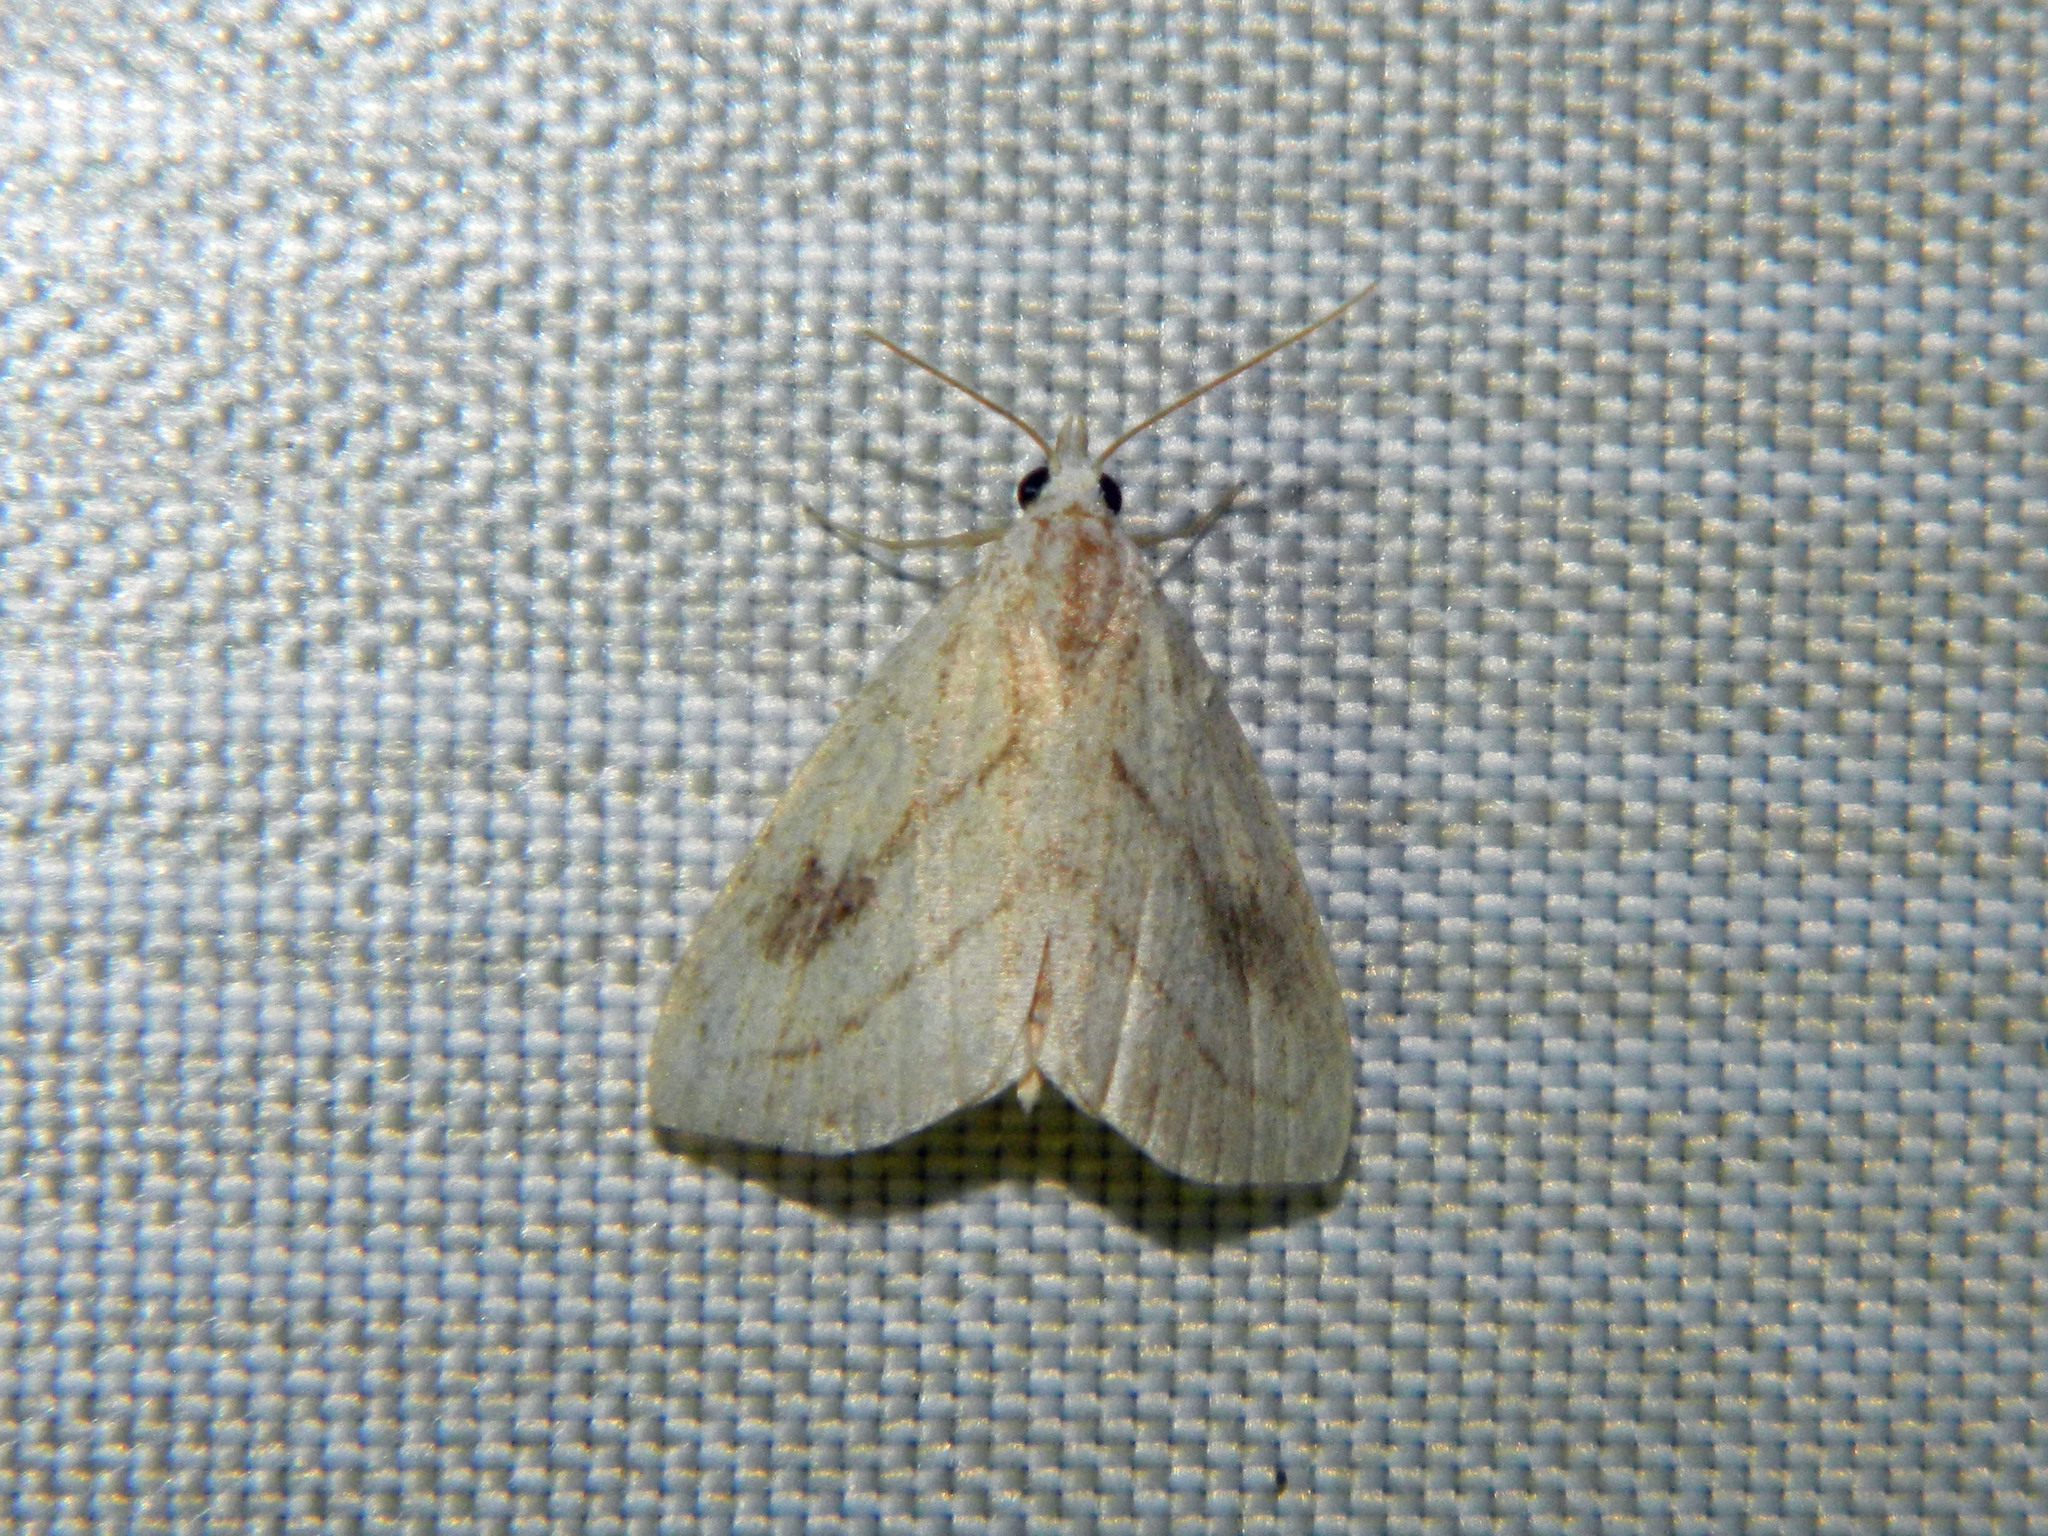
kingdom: Animalia
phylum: Arthropoda
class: Insecta
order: Lepidoptera
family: Erebidae
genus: Rivula
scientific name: Rivula propinqualis
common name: Spotted grass moth
